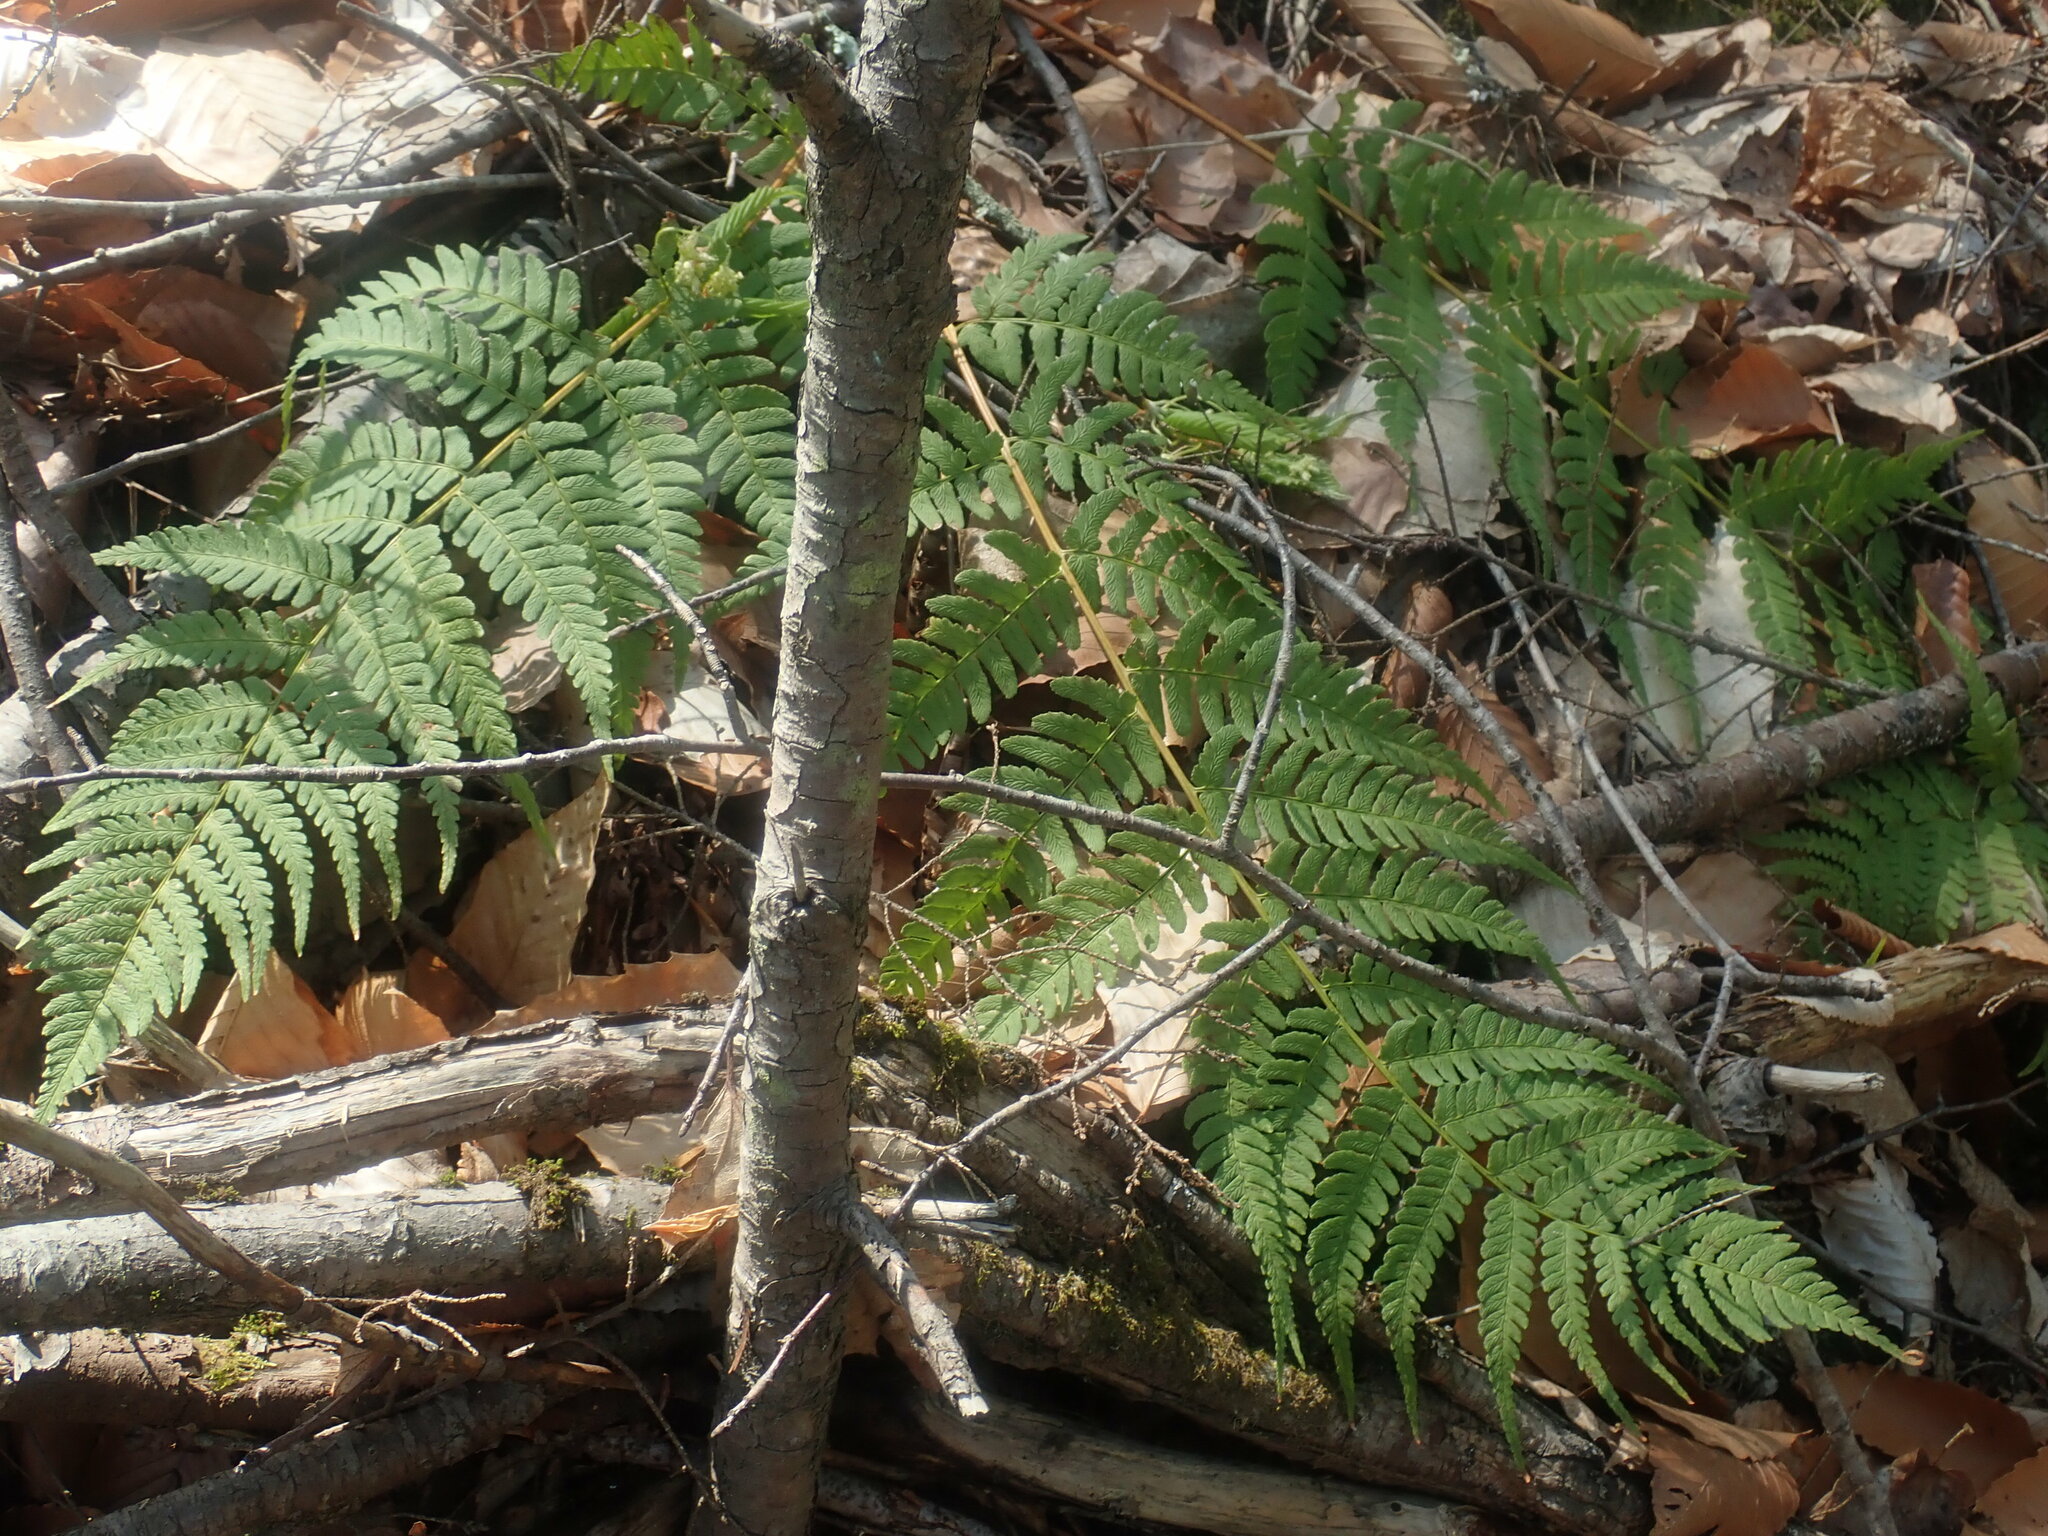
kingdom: Plantae
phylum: Tracheophyta
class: Polypodiopsida
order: Polypodiales
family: Dryopteridaceae
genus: Dryopteris
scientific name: Dryopteris marginalis
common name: Marginal wood fern
